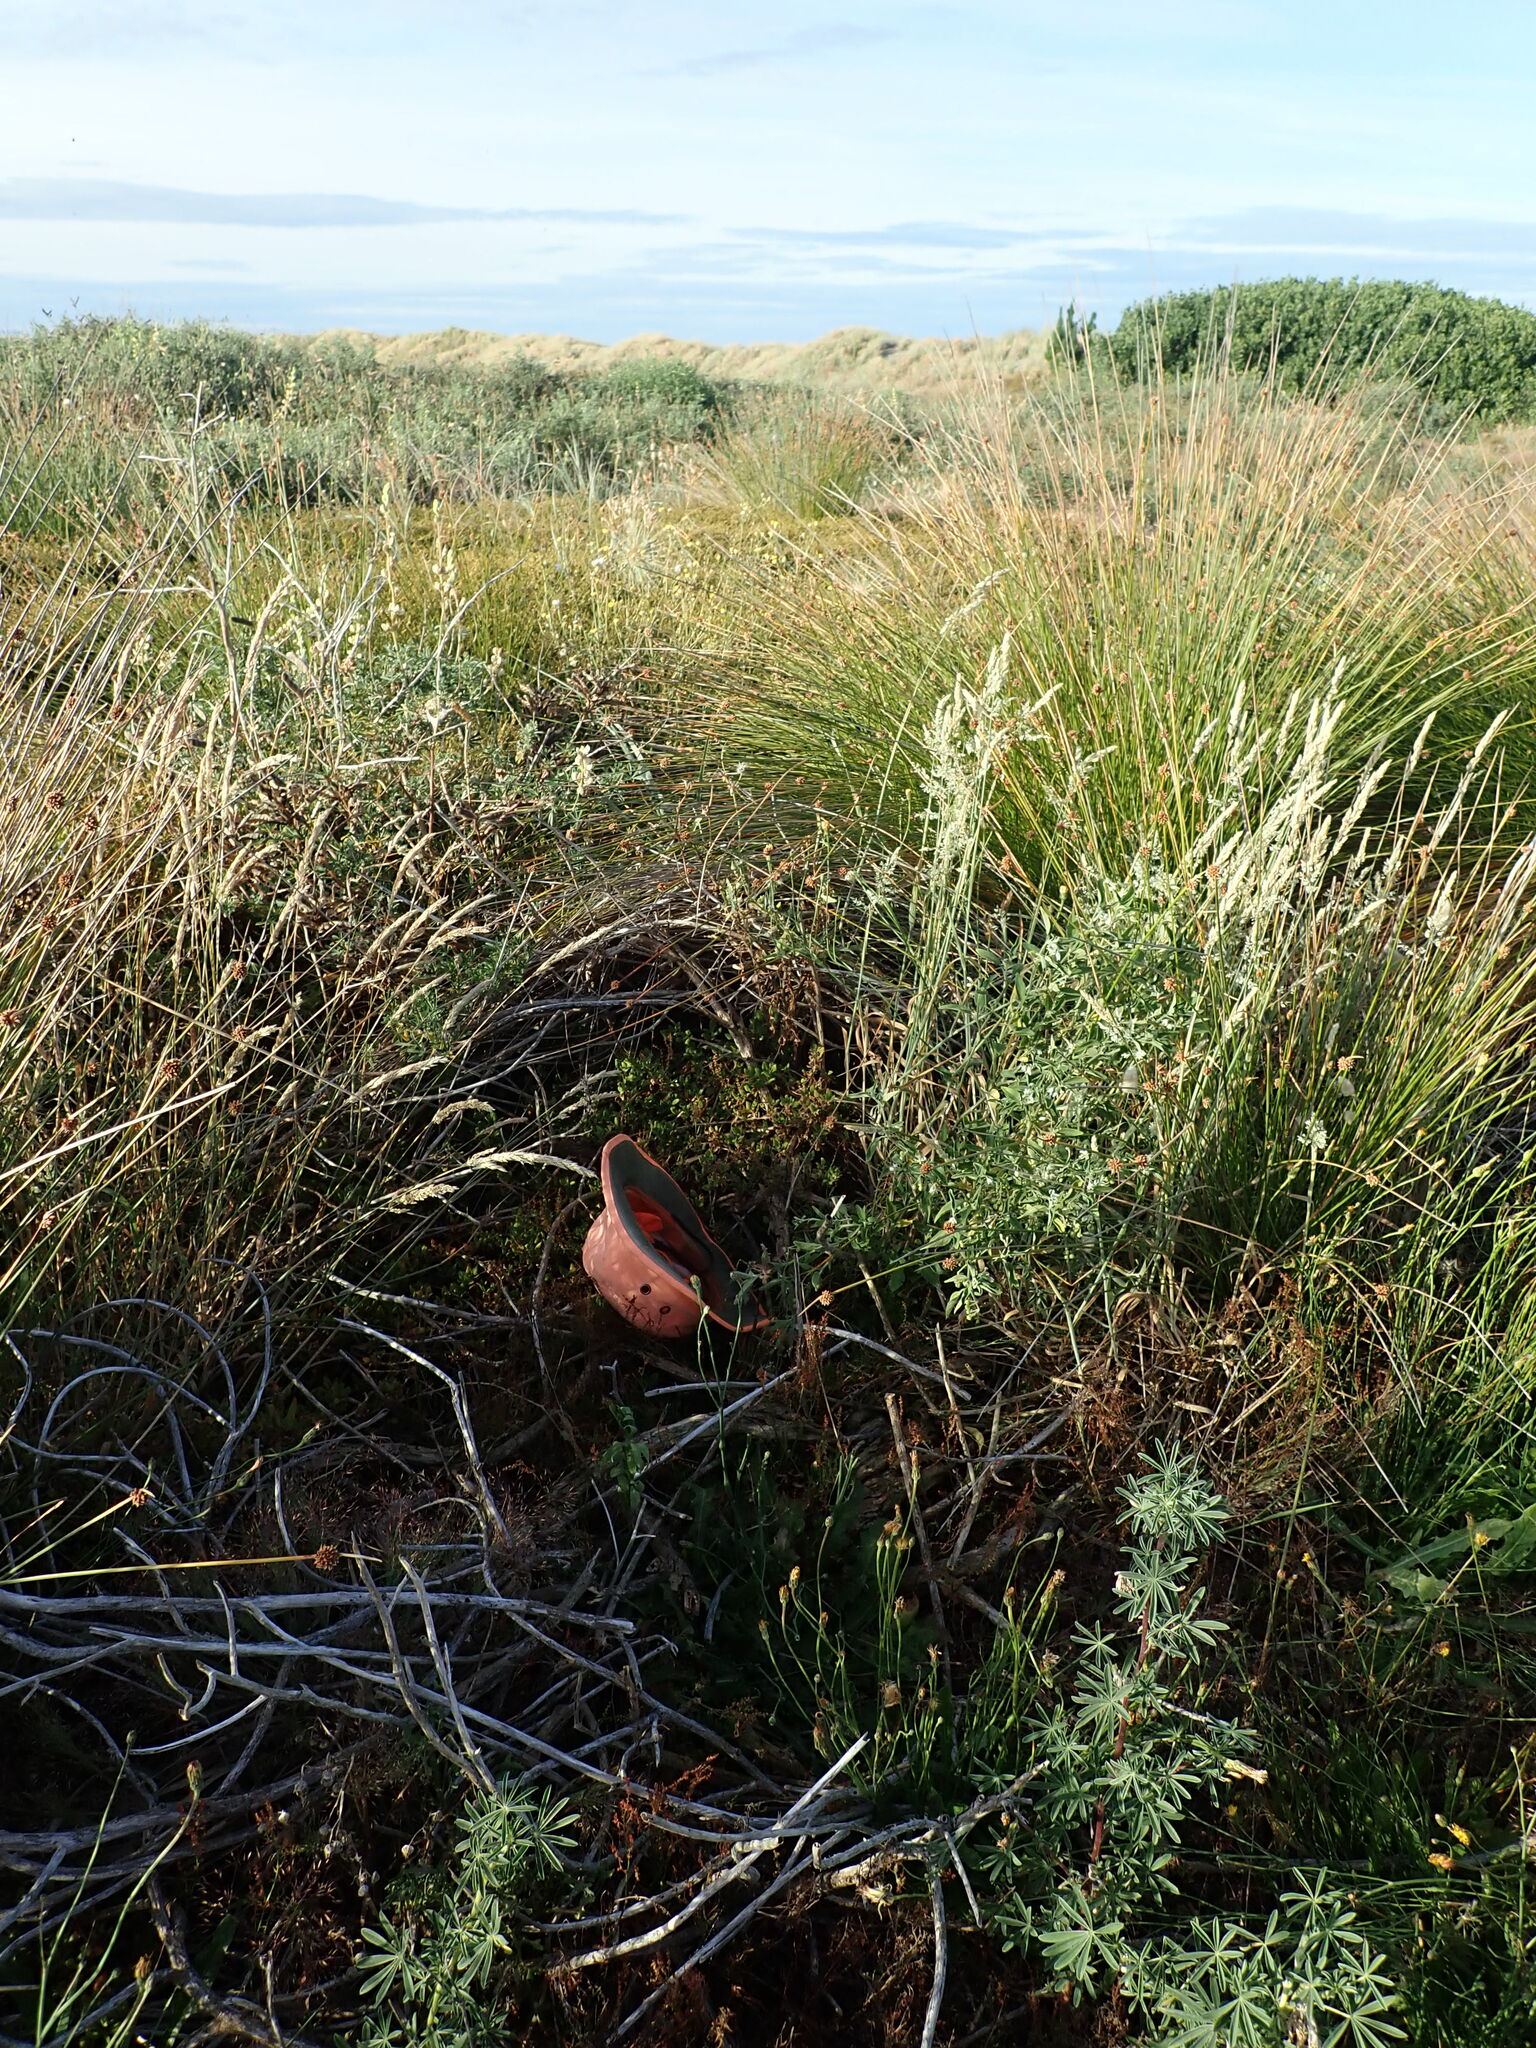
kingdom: Plantae
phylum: Tracheophyta
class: Magnoliopsida
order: Caryophyllales
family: Aizoaceae
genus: Tetragonia
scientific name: Tetragonia implexicoma
